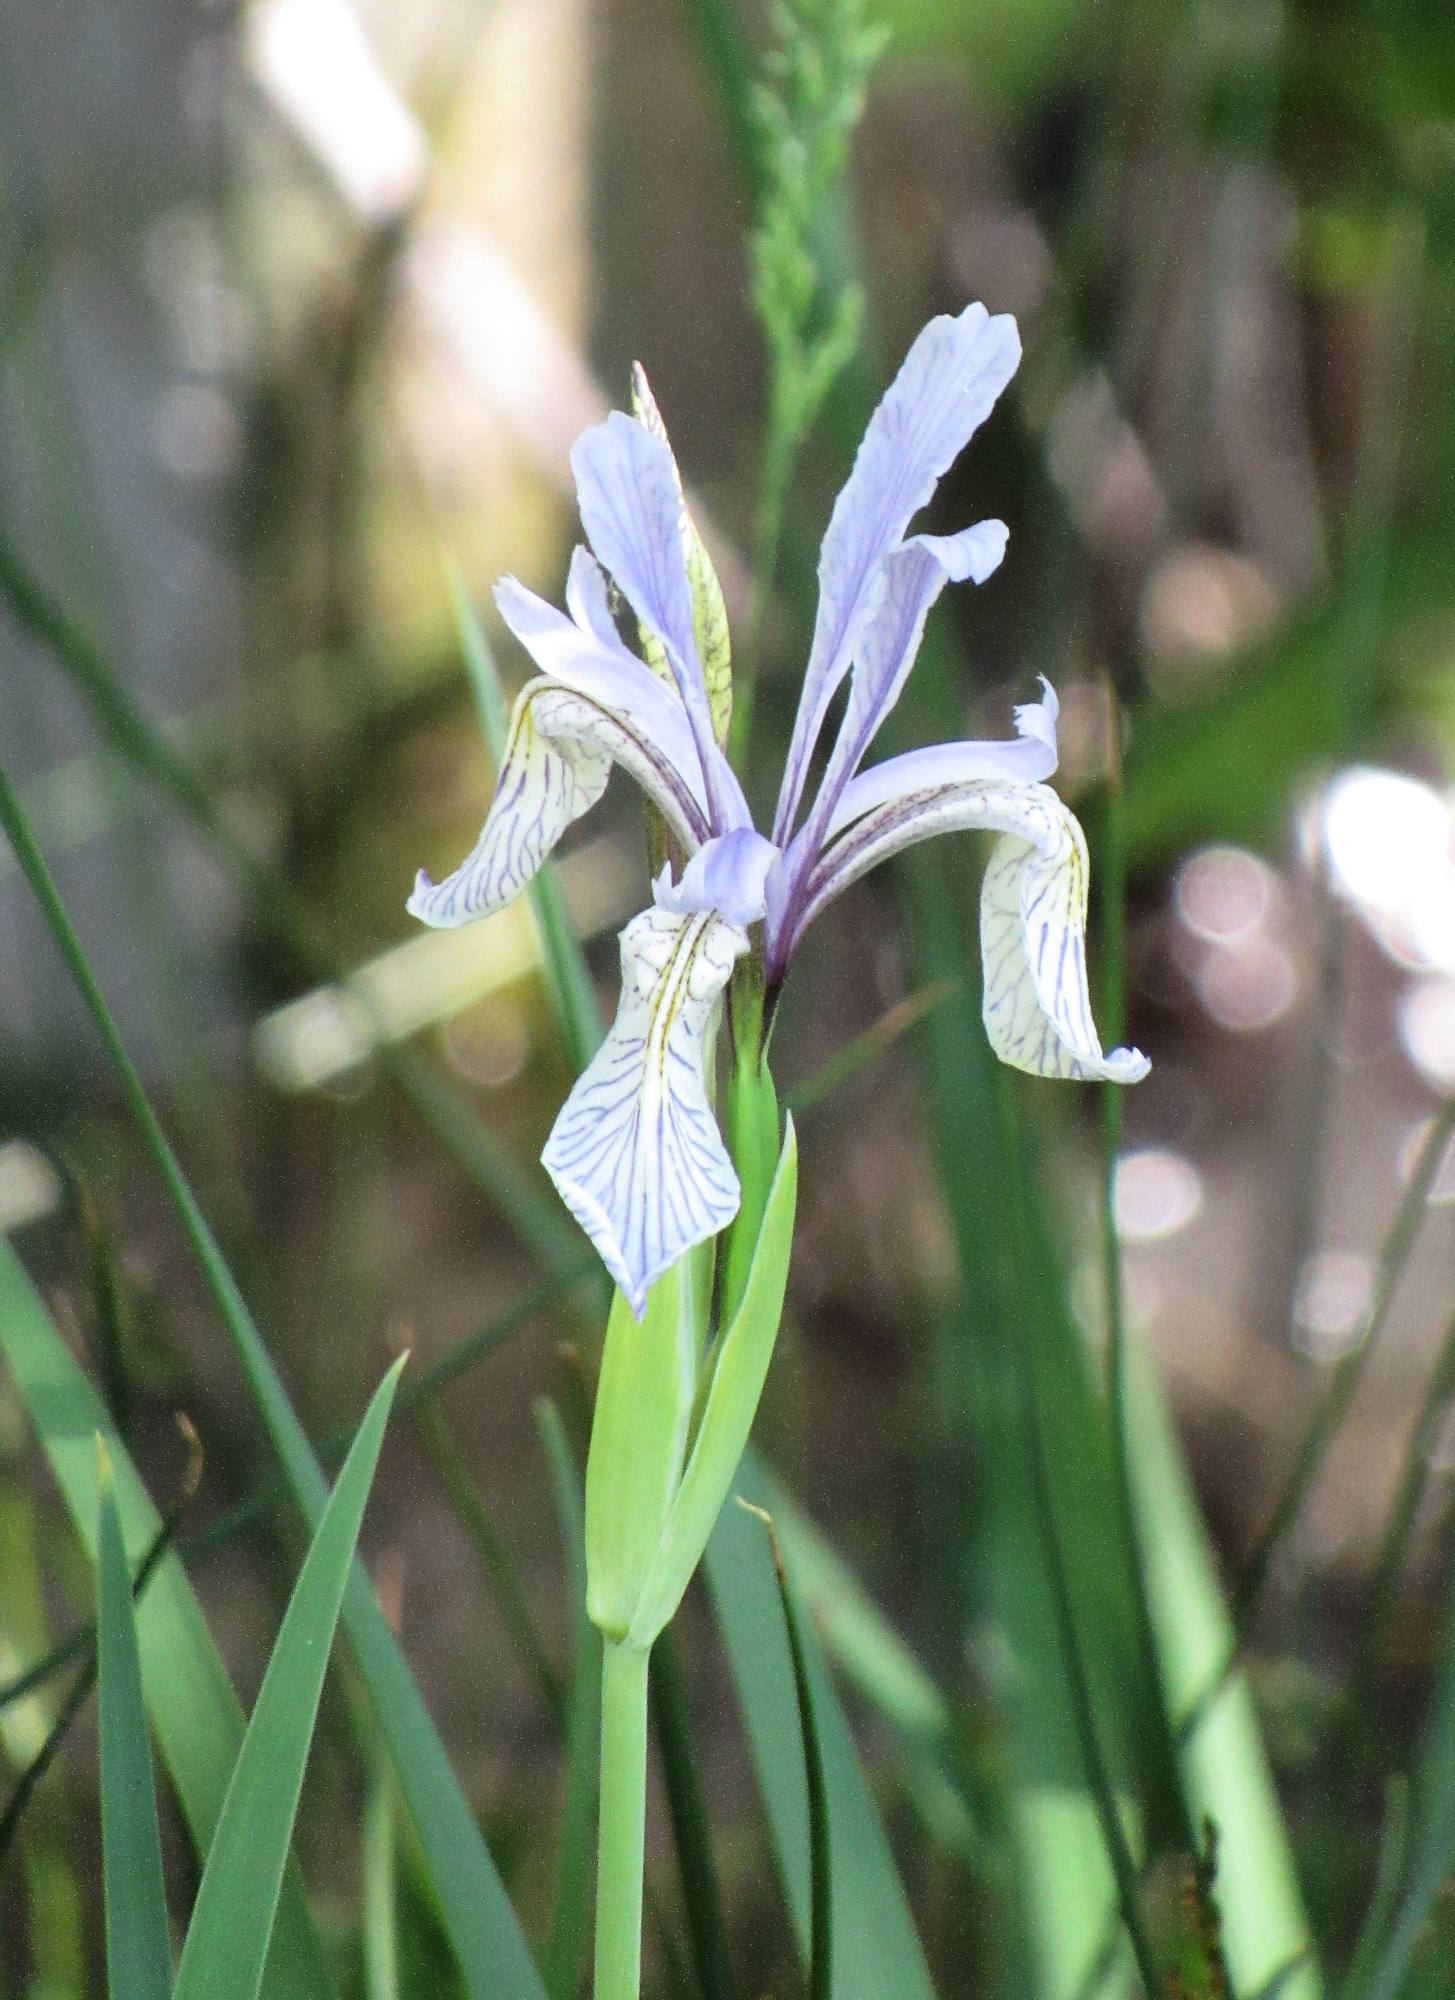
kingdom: Plantae
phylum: Tracheophyta
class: Liliopsida
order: Asparagales
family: Iridaceae
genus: Iris
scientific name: Iris missouriensis
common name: Rocky mountain iris
